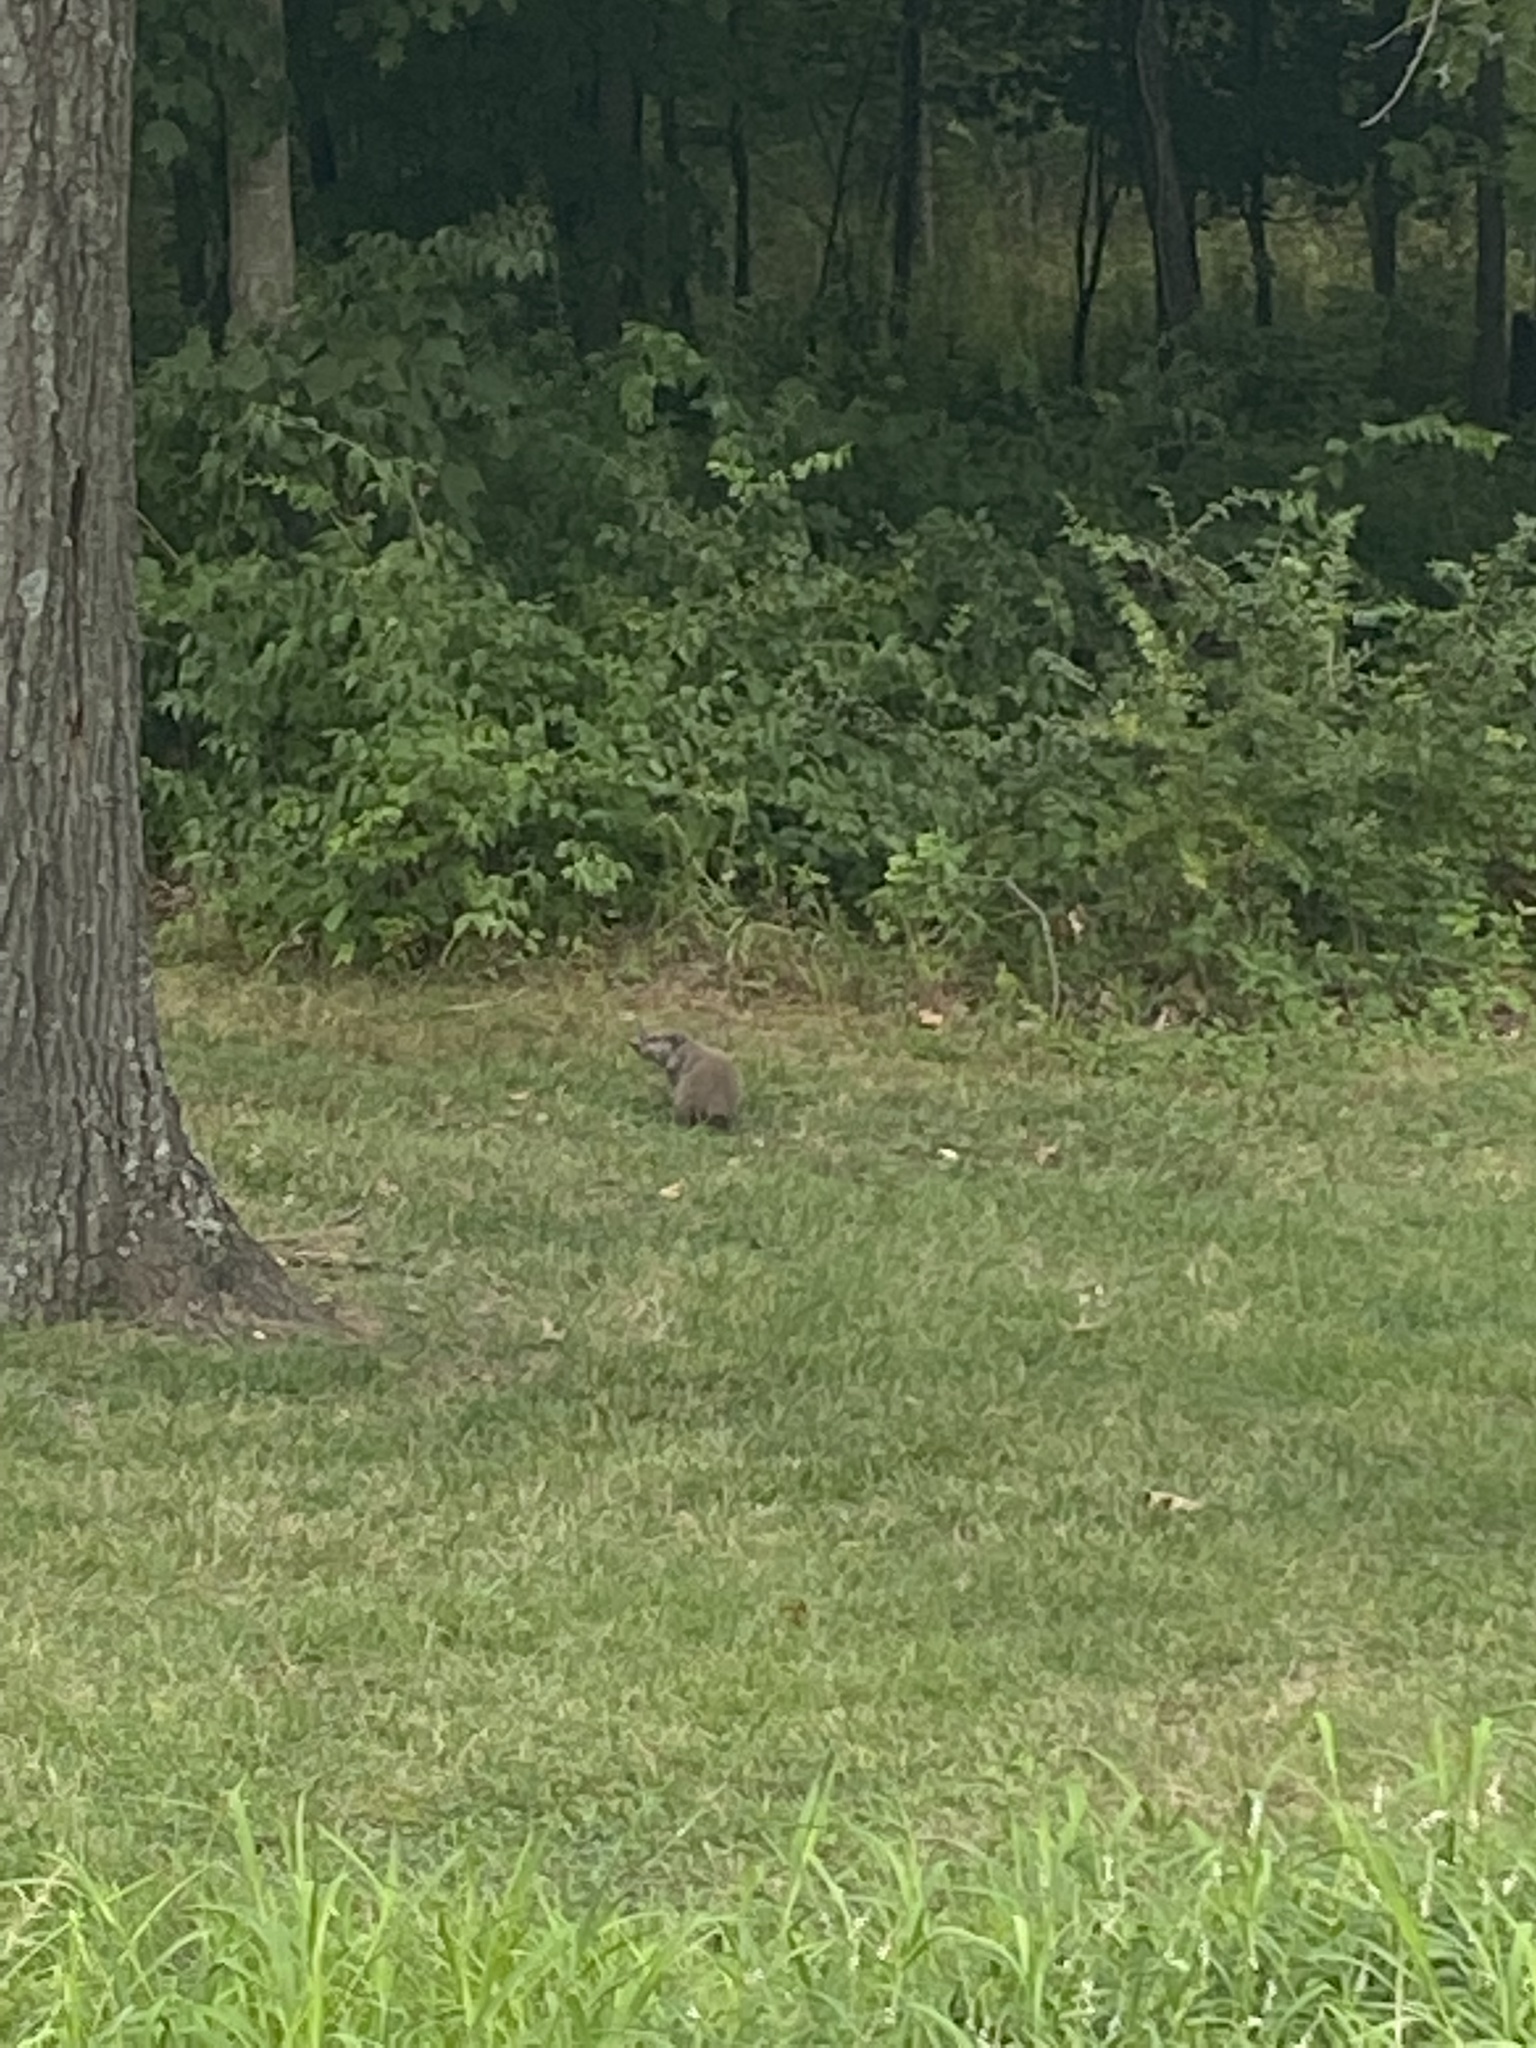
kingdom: Animalia
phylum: Chordata
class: Mammalia
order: Rodentia
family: Sciuridae
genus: Marmota
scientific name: Marmota monax
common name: Groundhog
